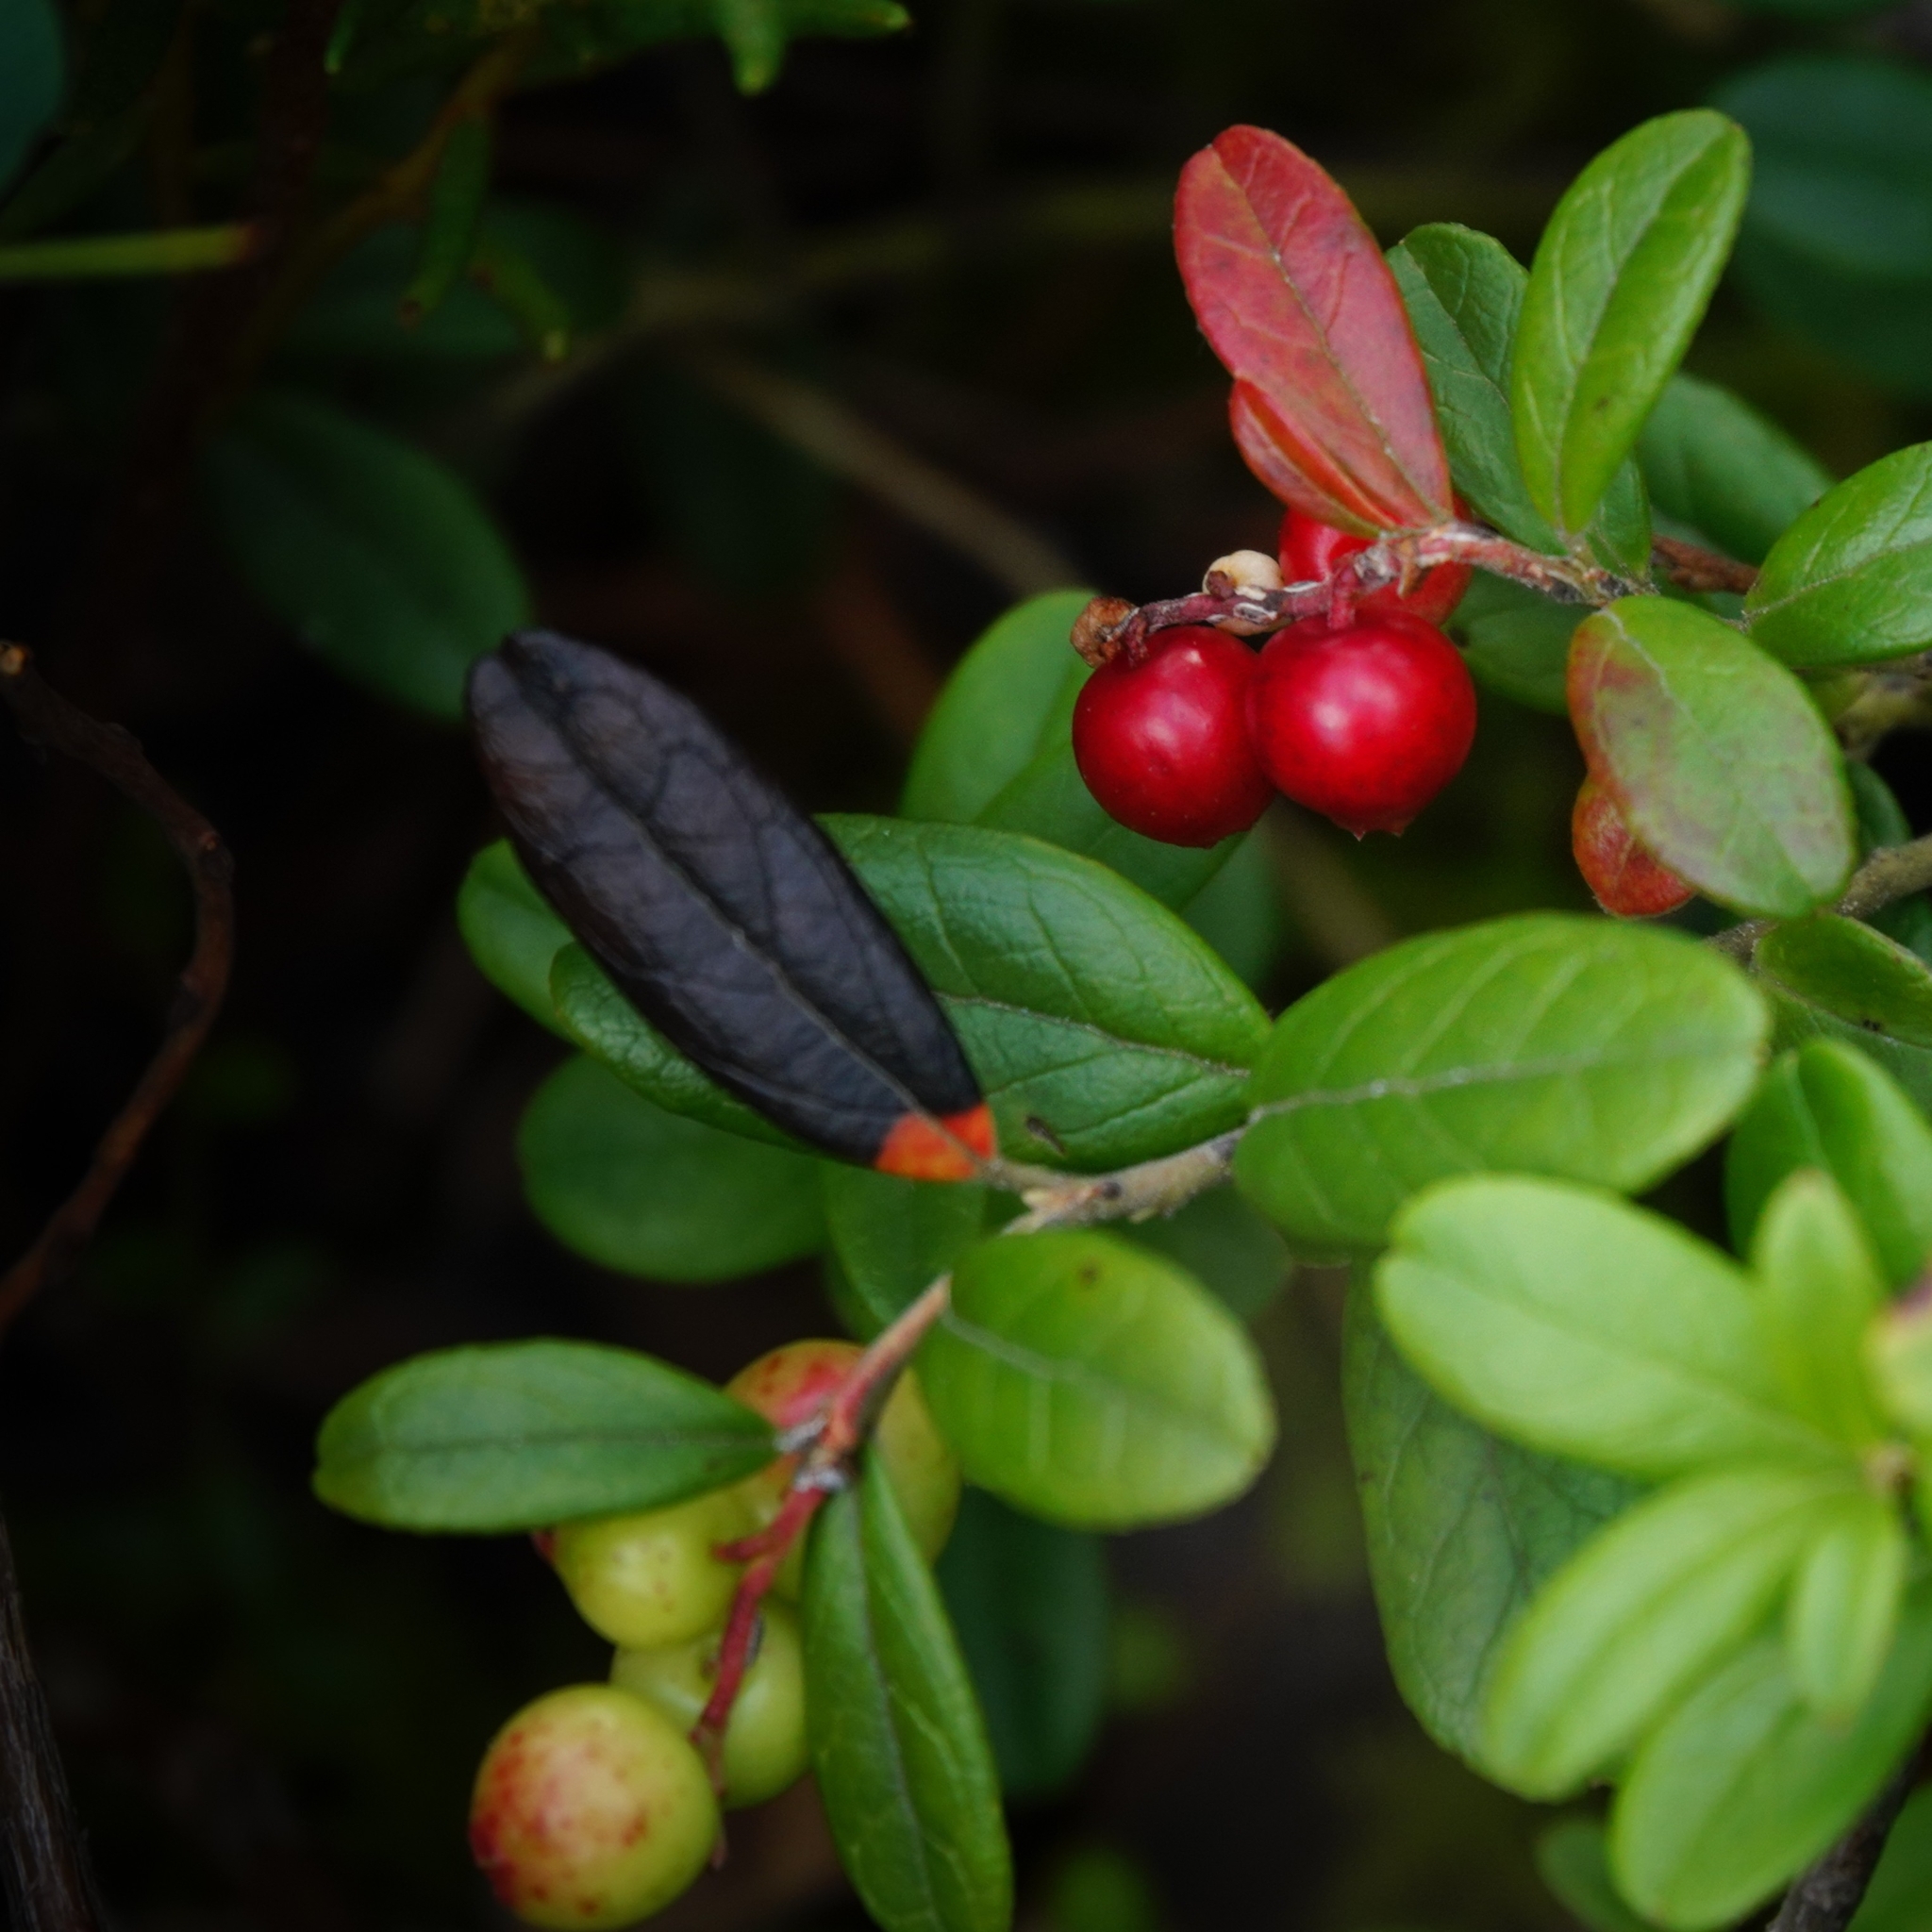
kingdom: Plantae
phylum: Tracheophyta
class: Magnoliopsida
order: Ericales
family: Ericaceae
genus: Vaccinium
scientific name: Vaccinium vitis-idaea
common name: Cowberry
